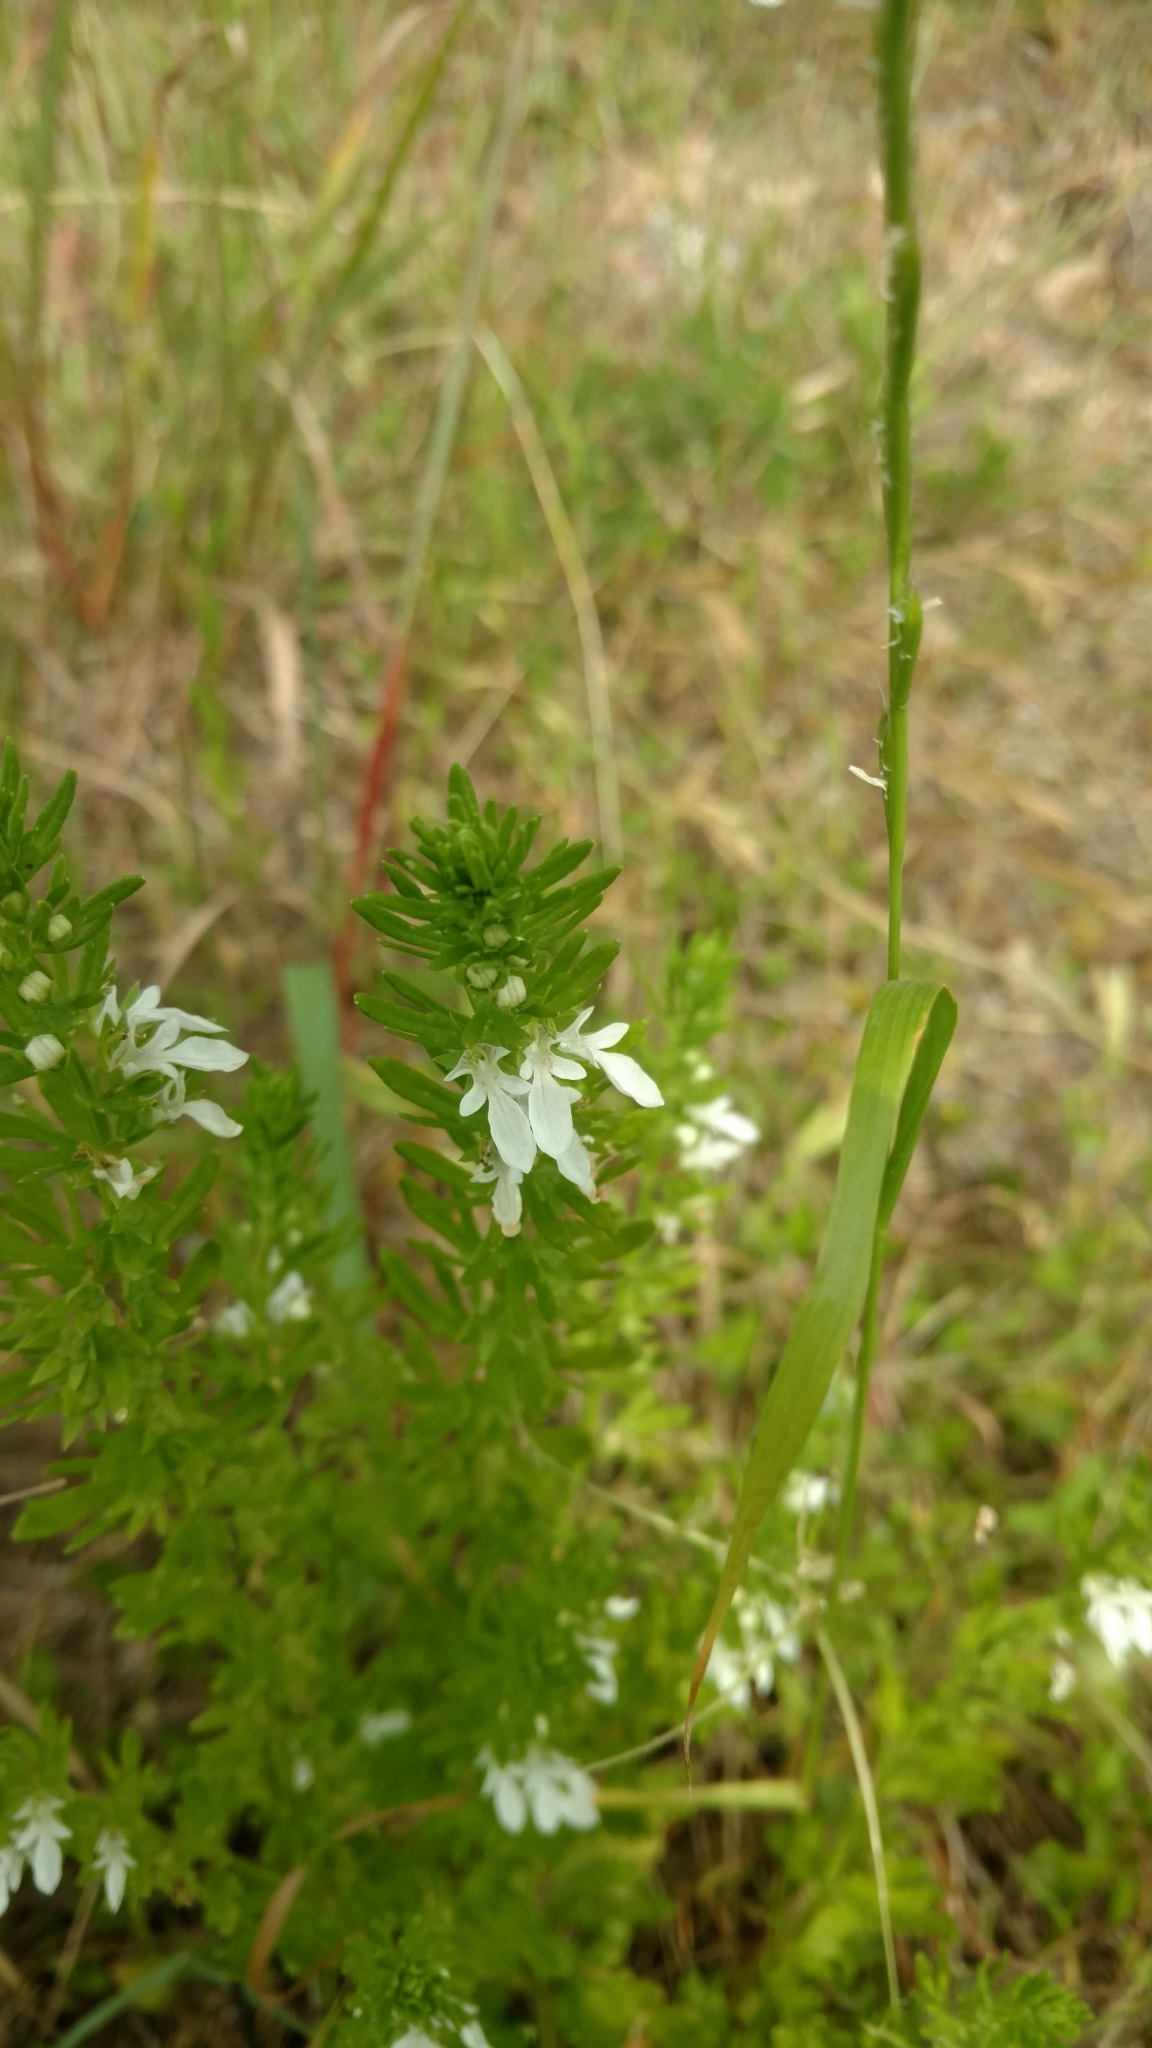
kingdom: Plantae
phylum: Tracheophyta
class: Magnoliopsida
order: Lamiales
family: Lamiaceae
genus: Teucrium
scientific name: Teucrium cubense
